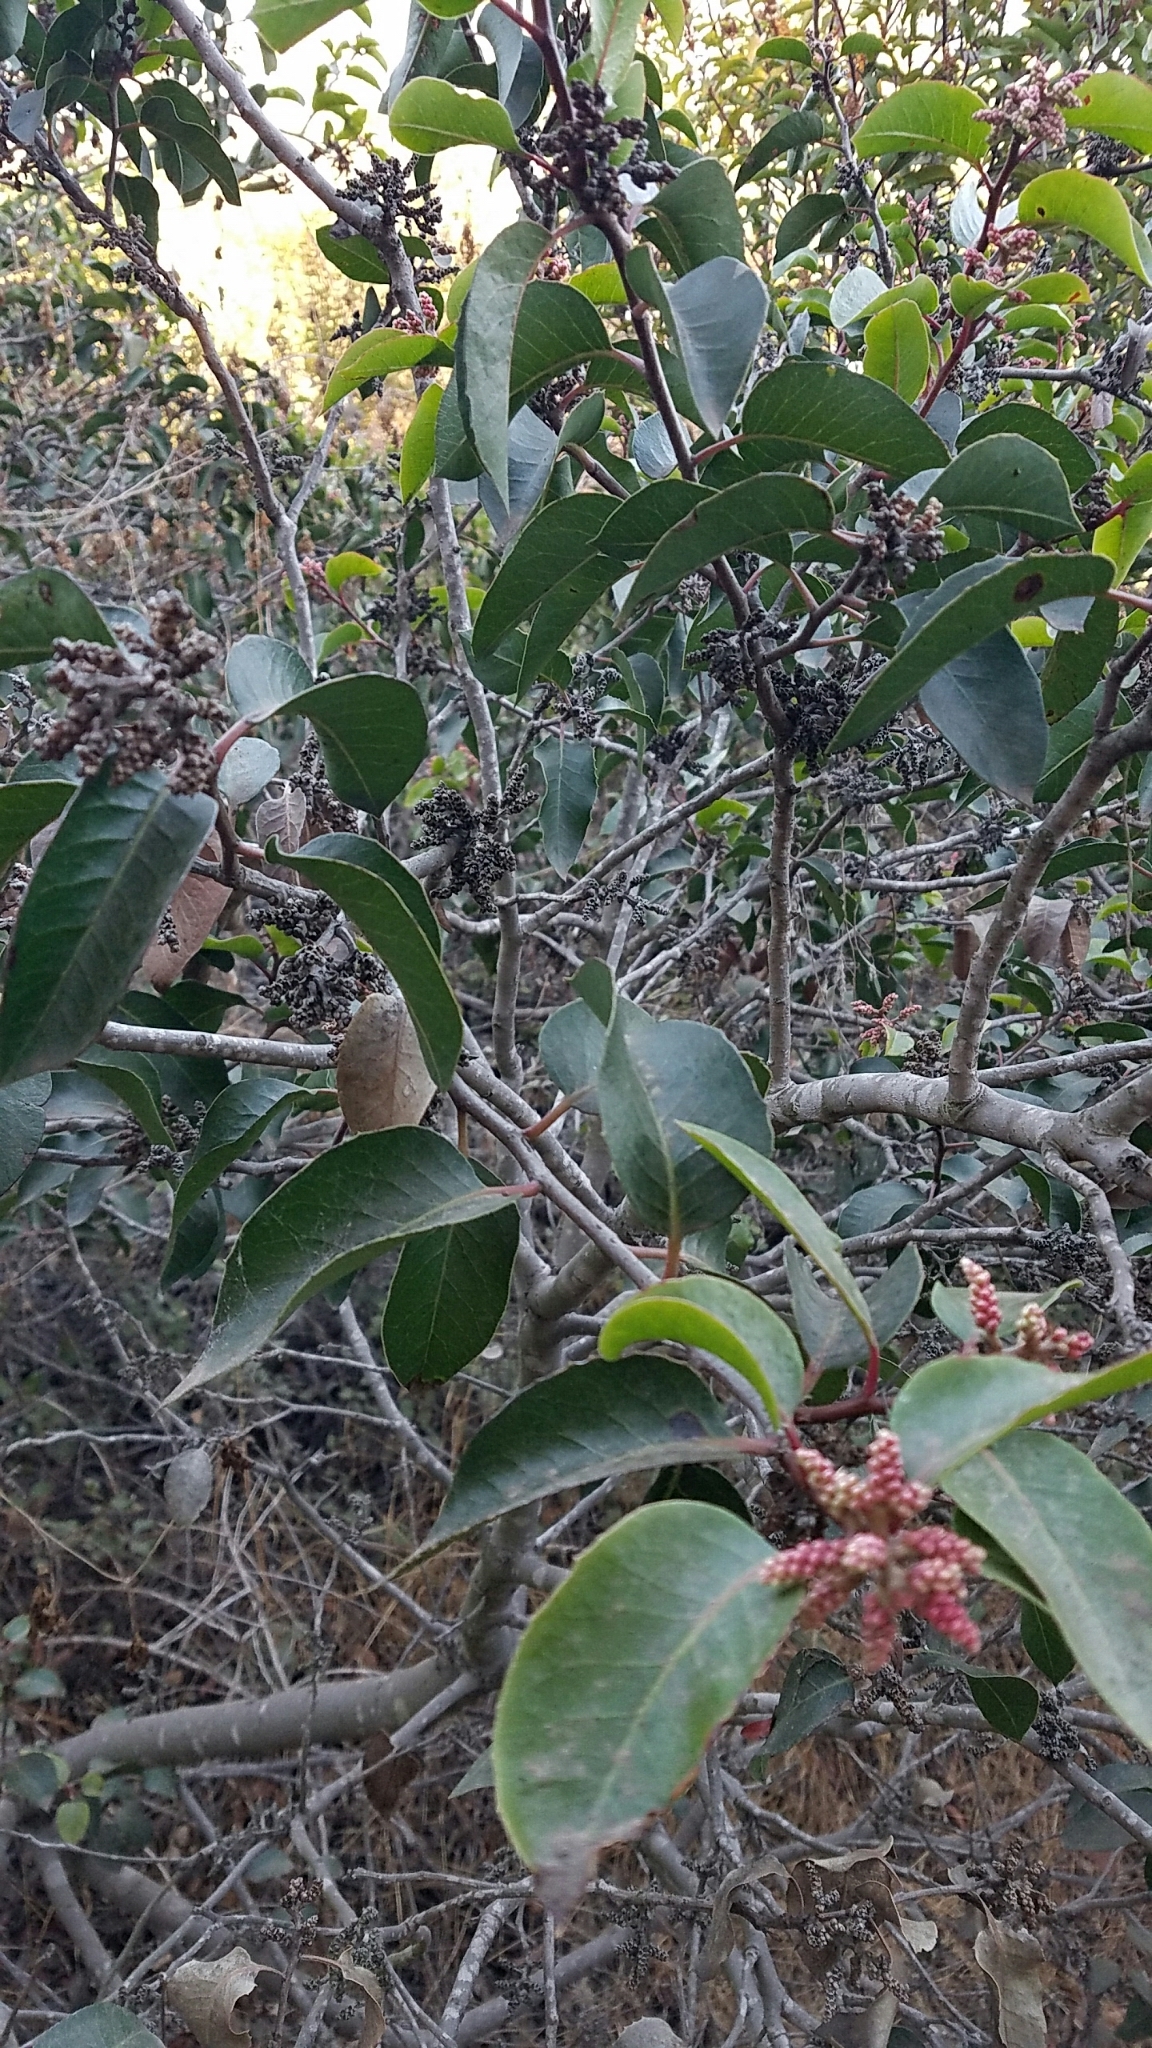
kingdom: Plantae
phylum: Tracheophyta
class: Magnoliopsida
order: Sapindales
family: Anacardiaceae
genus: Rhus
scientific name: Rhus ovata
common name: Sugar sumac
